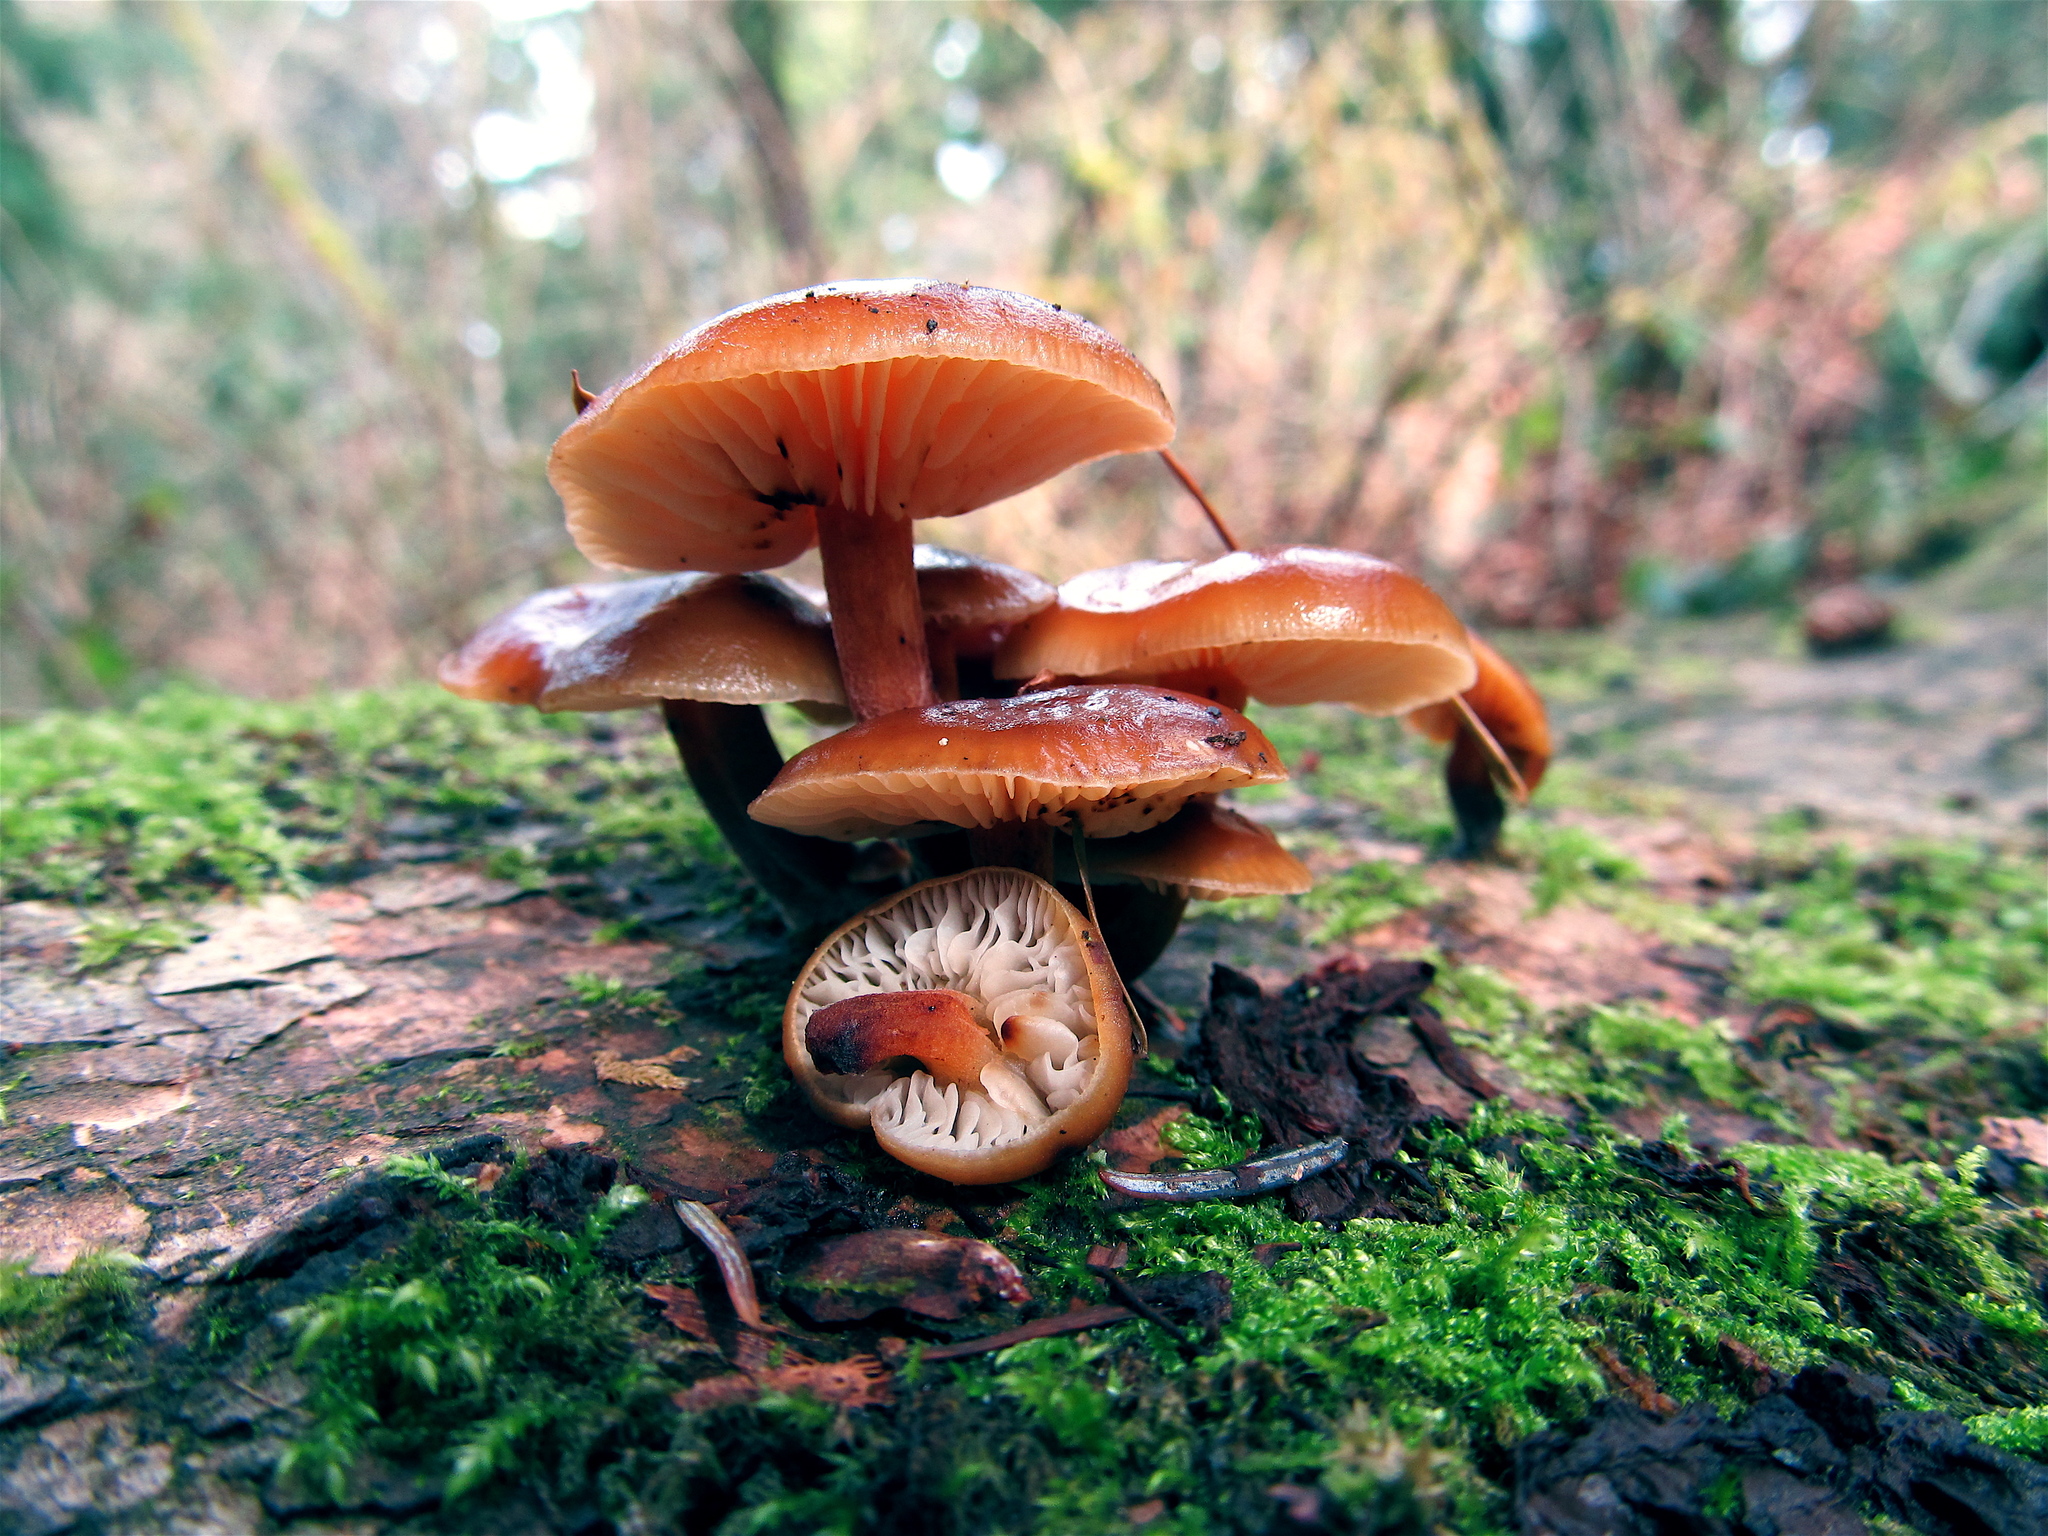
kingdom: Fungi
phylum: Basidiomycota
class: Agaricomycetes
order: Agaricales
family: Physalacriaceae
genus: Flammulina
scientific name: Flammulina velutipes
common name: Velvet shank
